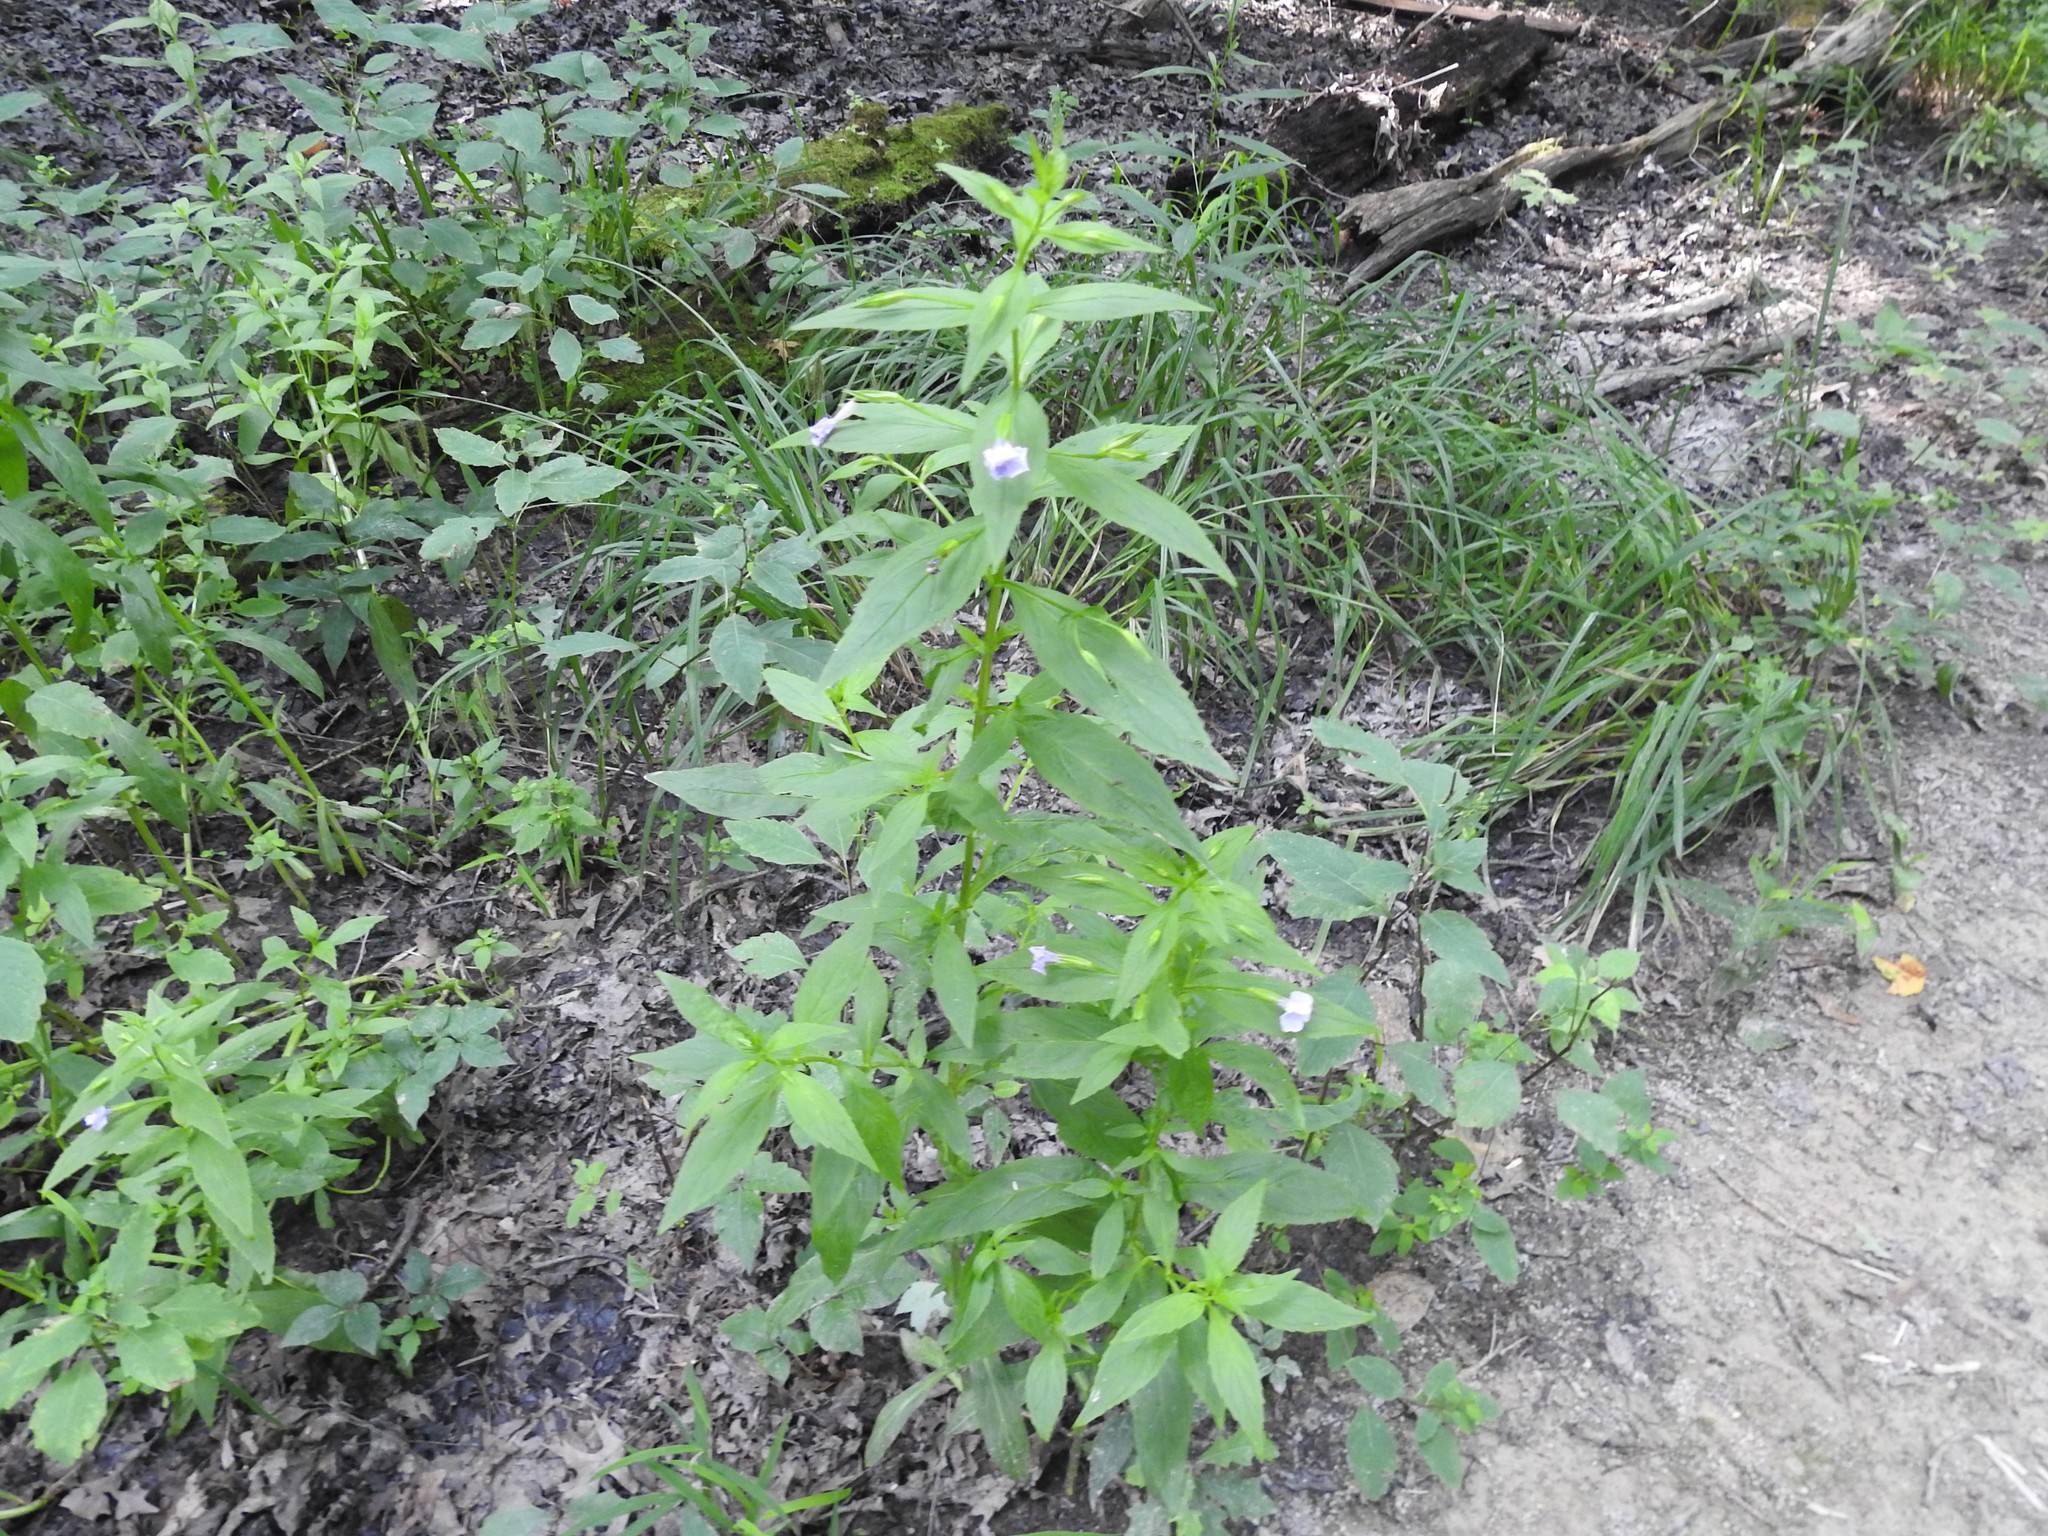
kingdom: Plantae
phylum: Tracheophyta
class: Magnoliopsida
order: Lamiales
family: Phrymaceae
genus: Mimulus
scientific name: Mimulus ringens
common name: Allegheny monkeyflower
